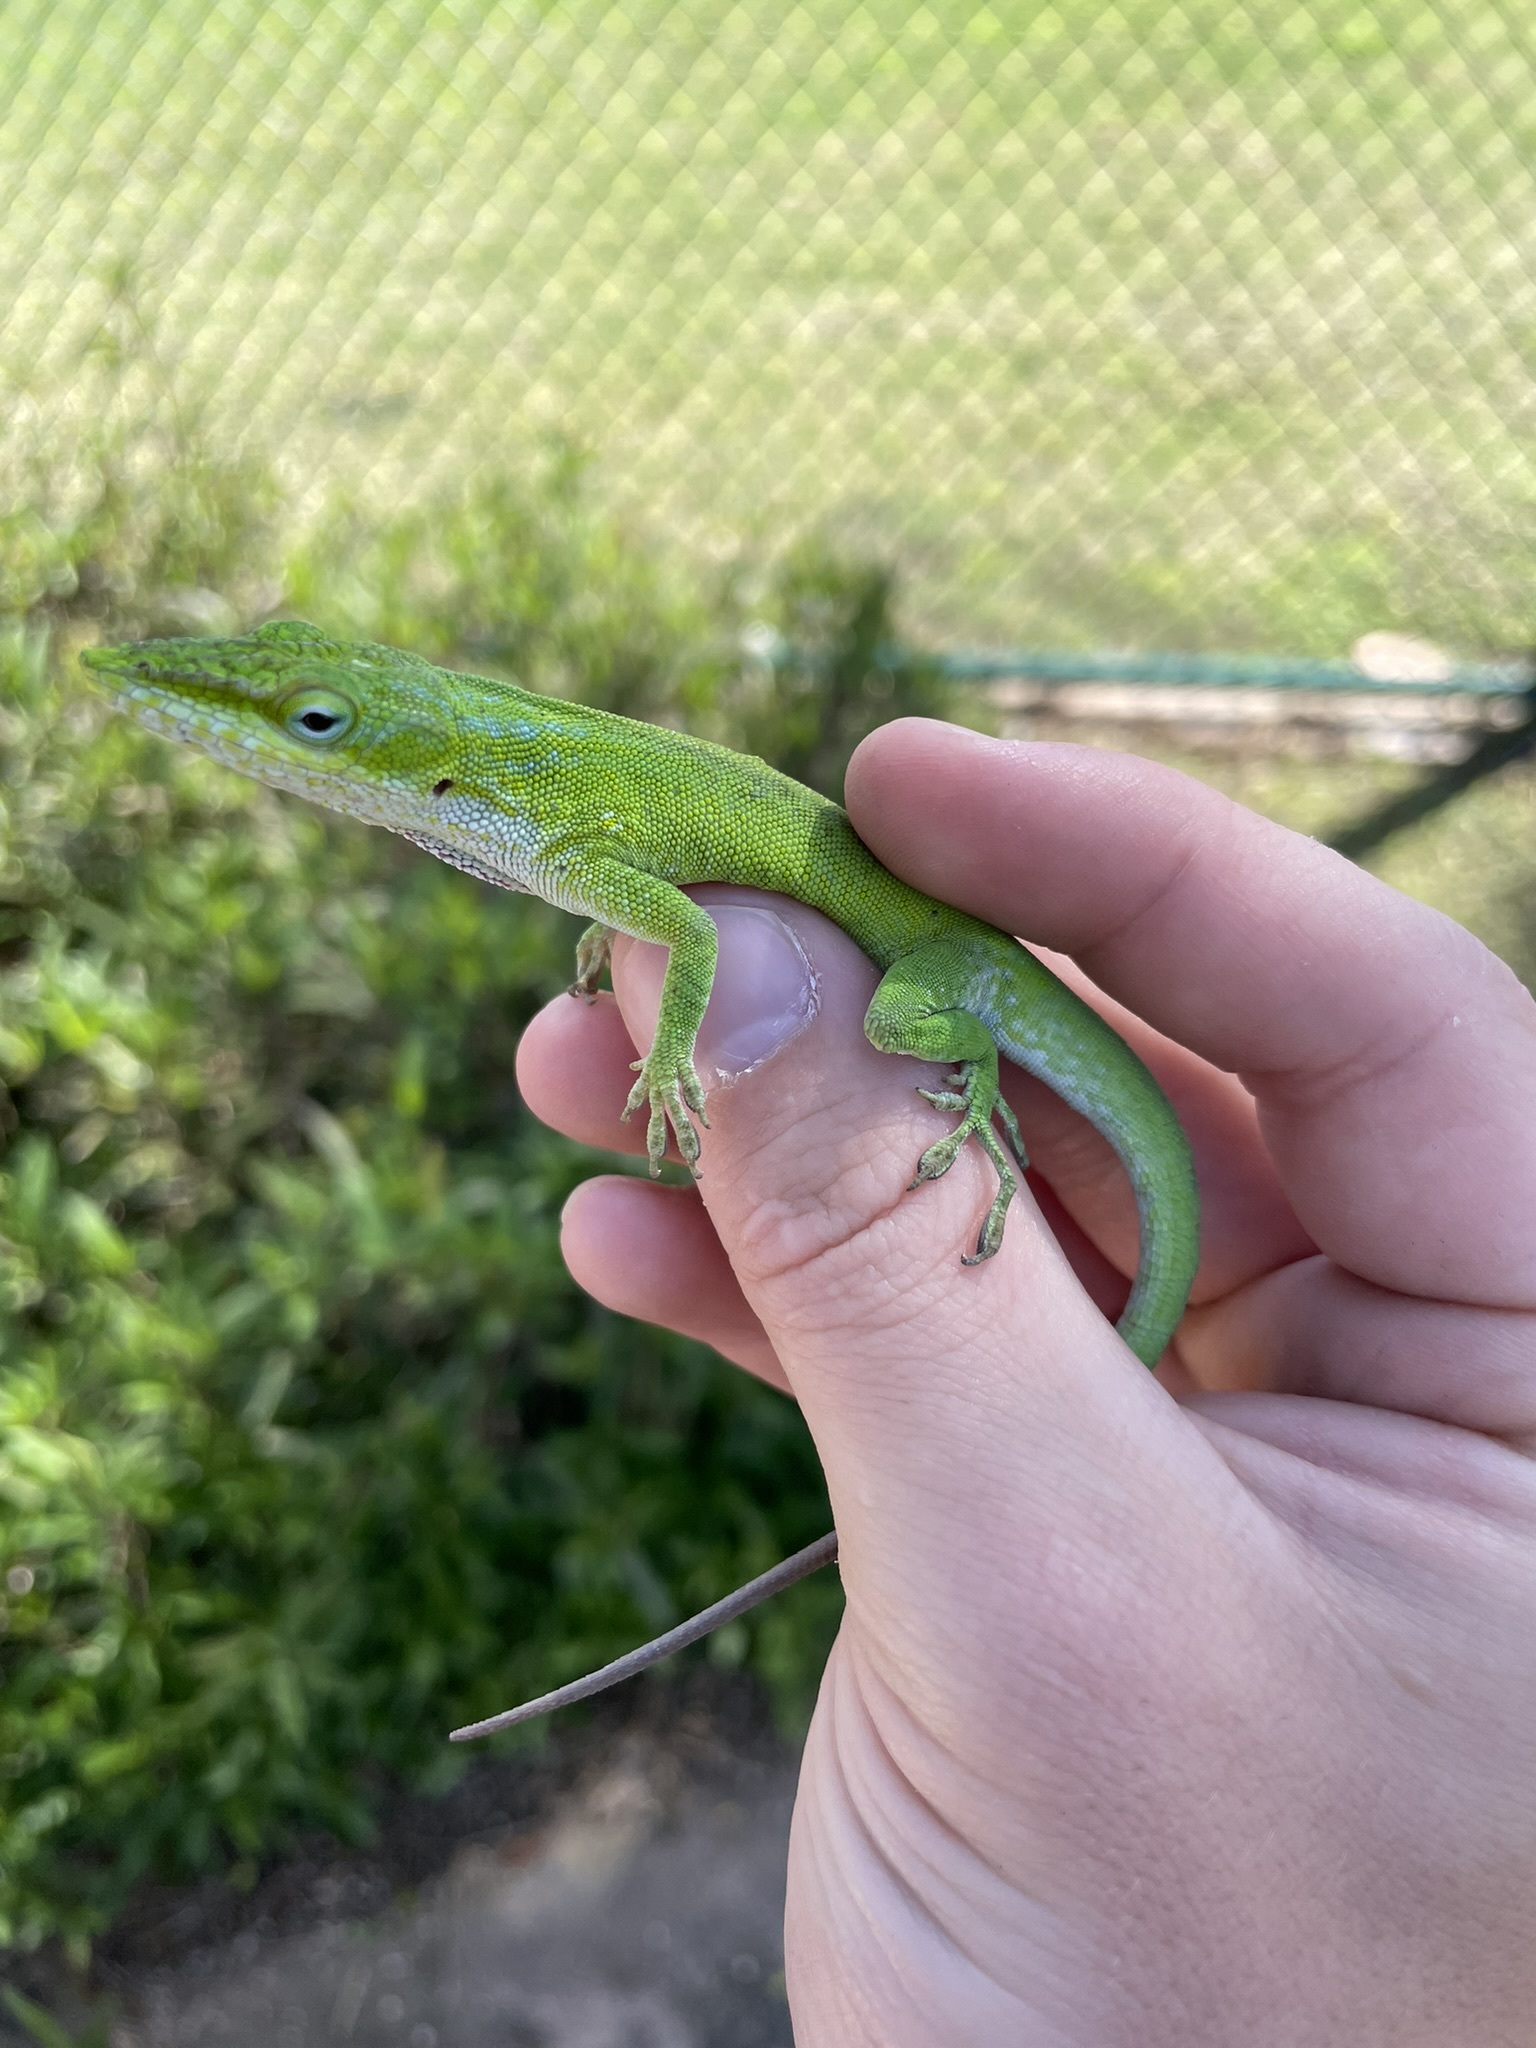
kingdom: Animalia
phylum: Chordata
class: Squamata
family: Dactyloidae
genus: Anolis
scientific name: Anolis carolinensis
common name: Green anole
